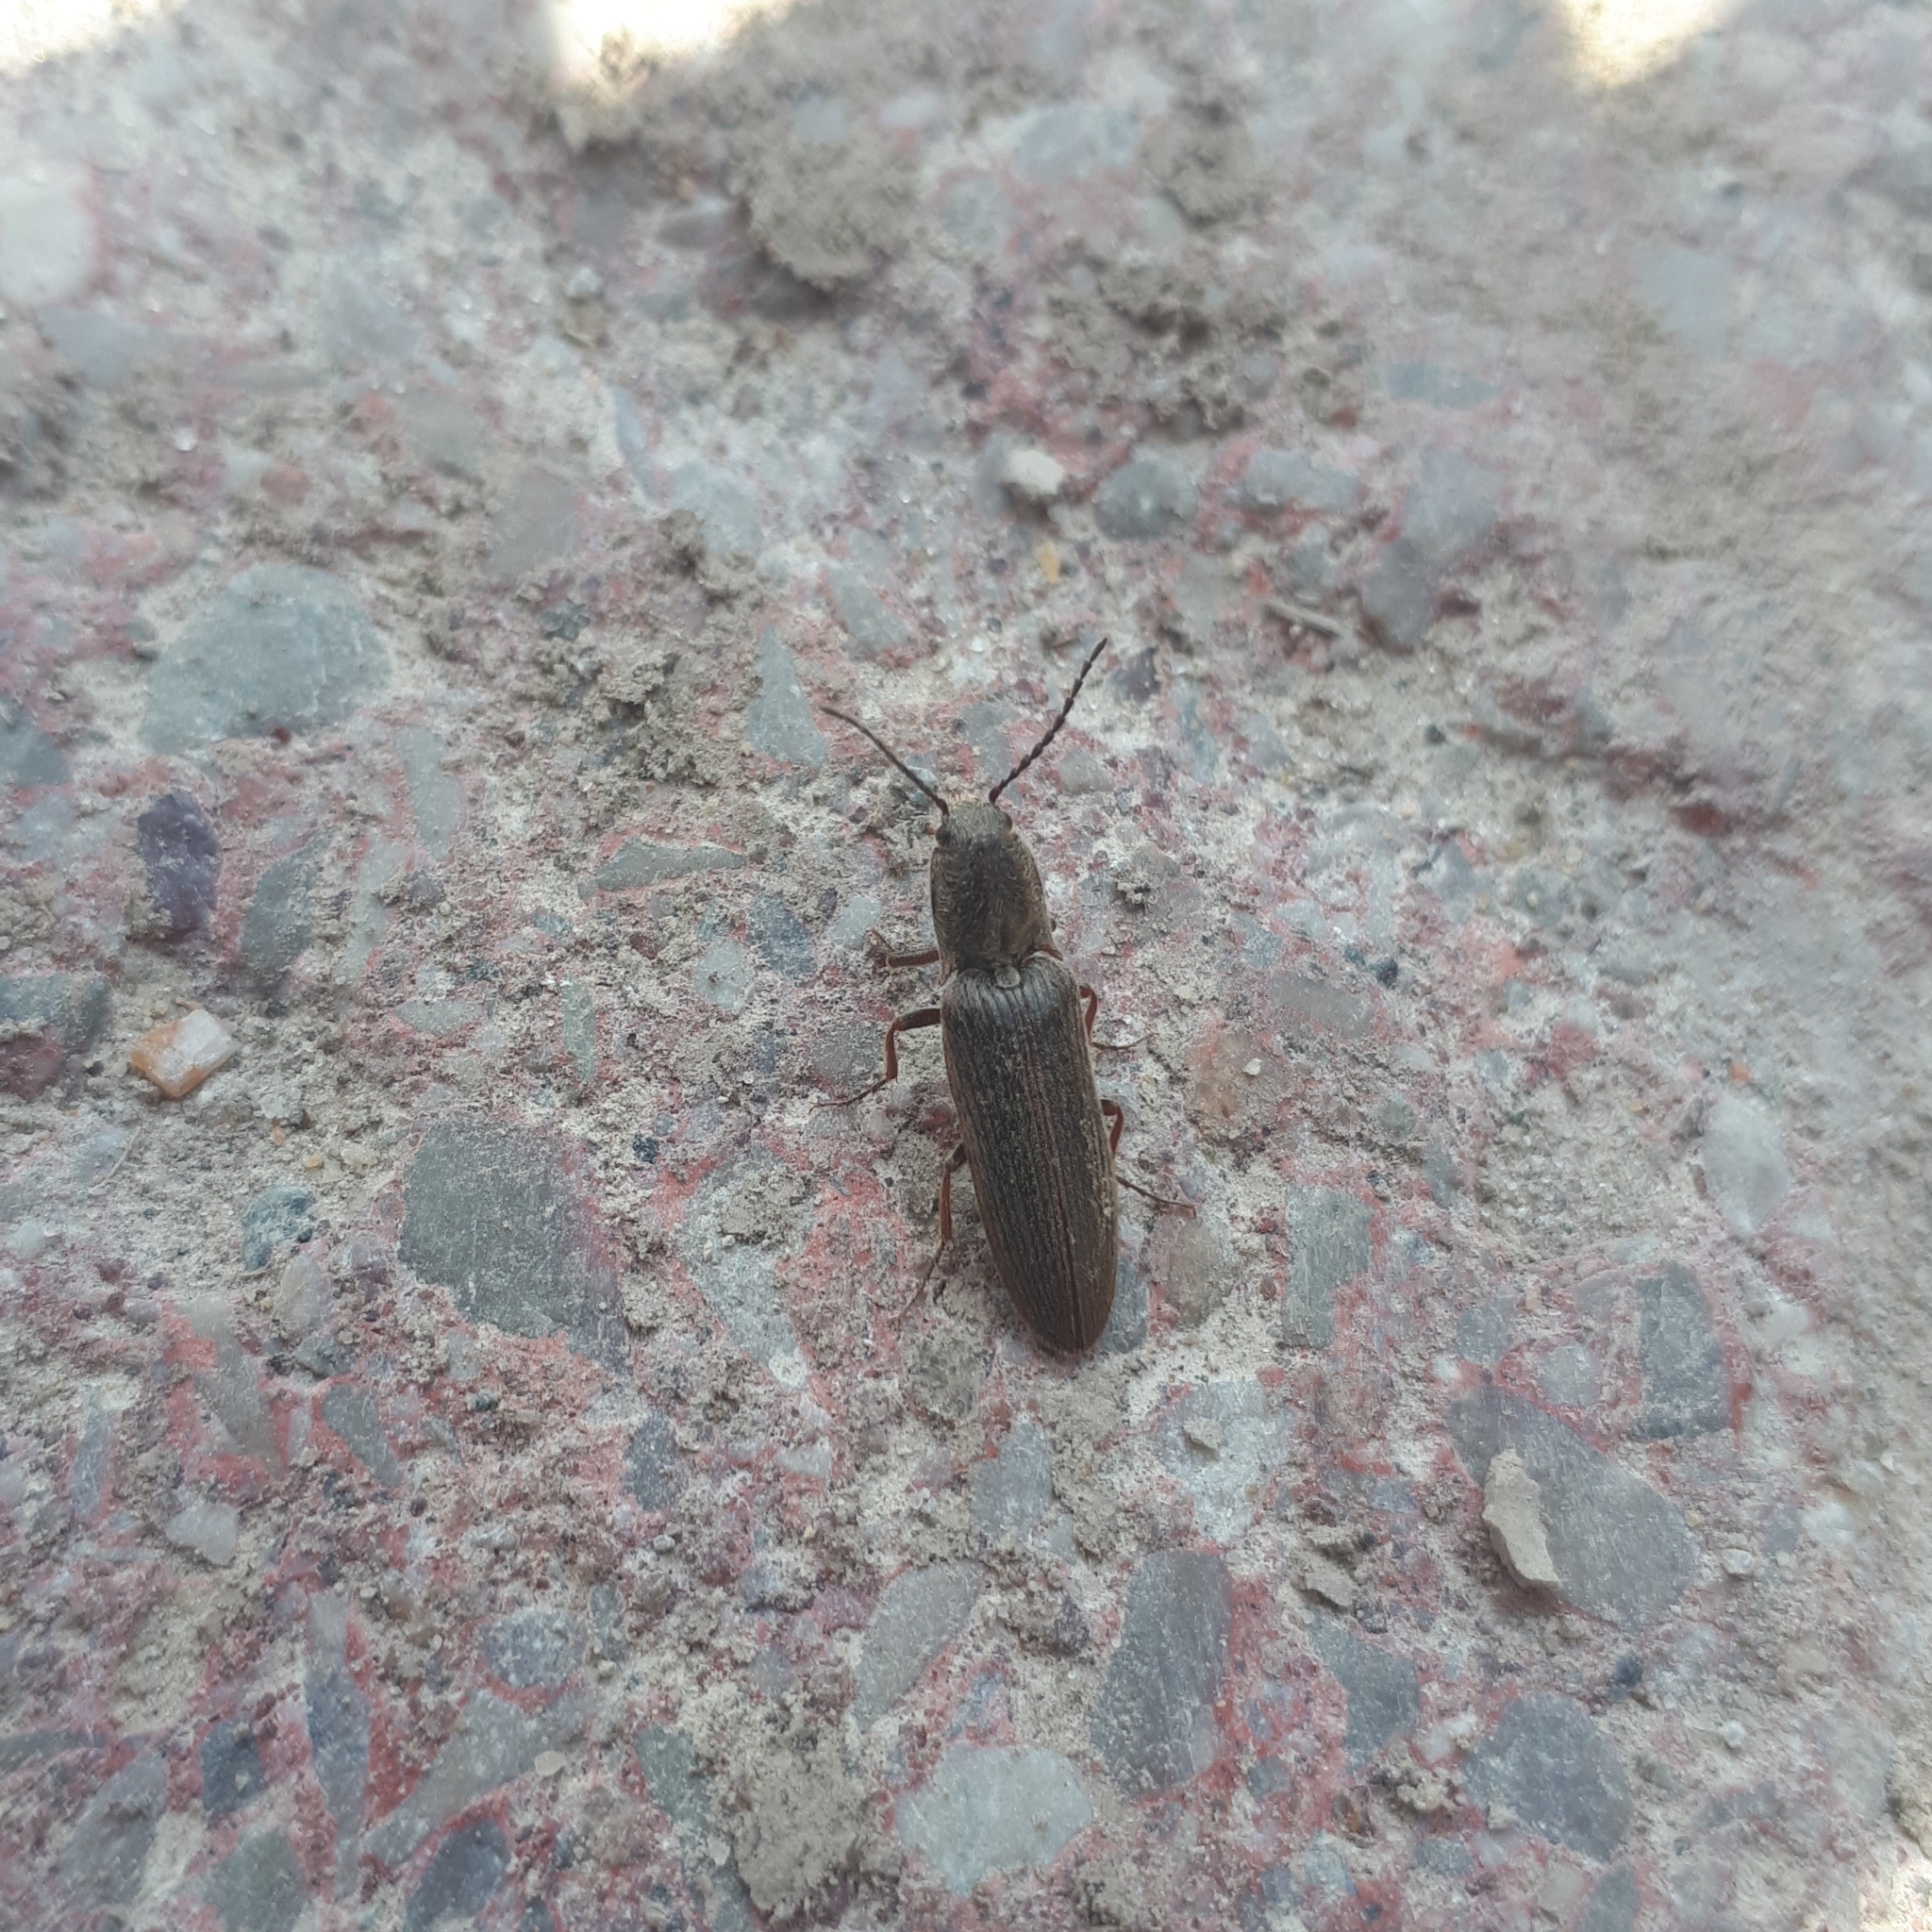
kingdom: Animalia
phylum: Arthropoda
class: Insecta
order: Coleoptera
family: Elateridae
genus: Sylvanelater
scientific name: Sylvanelater cylindriformis
